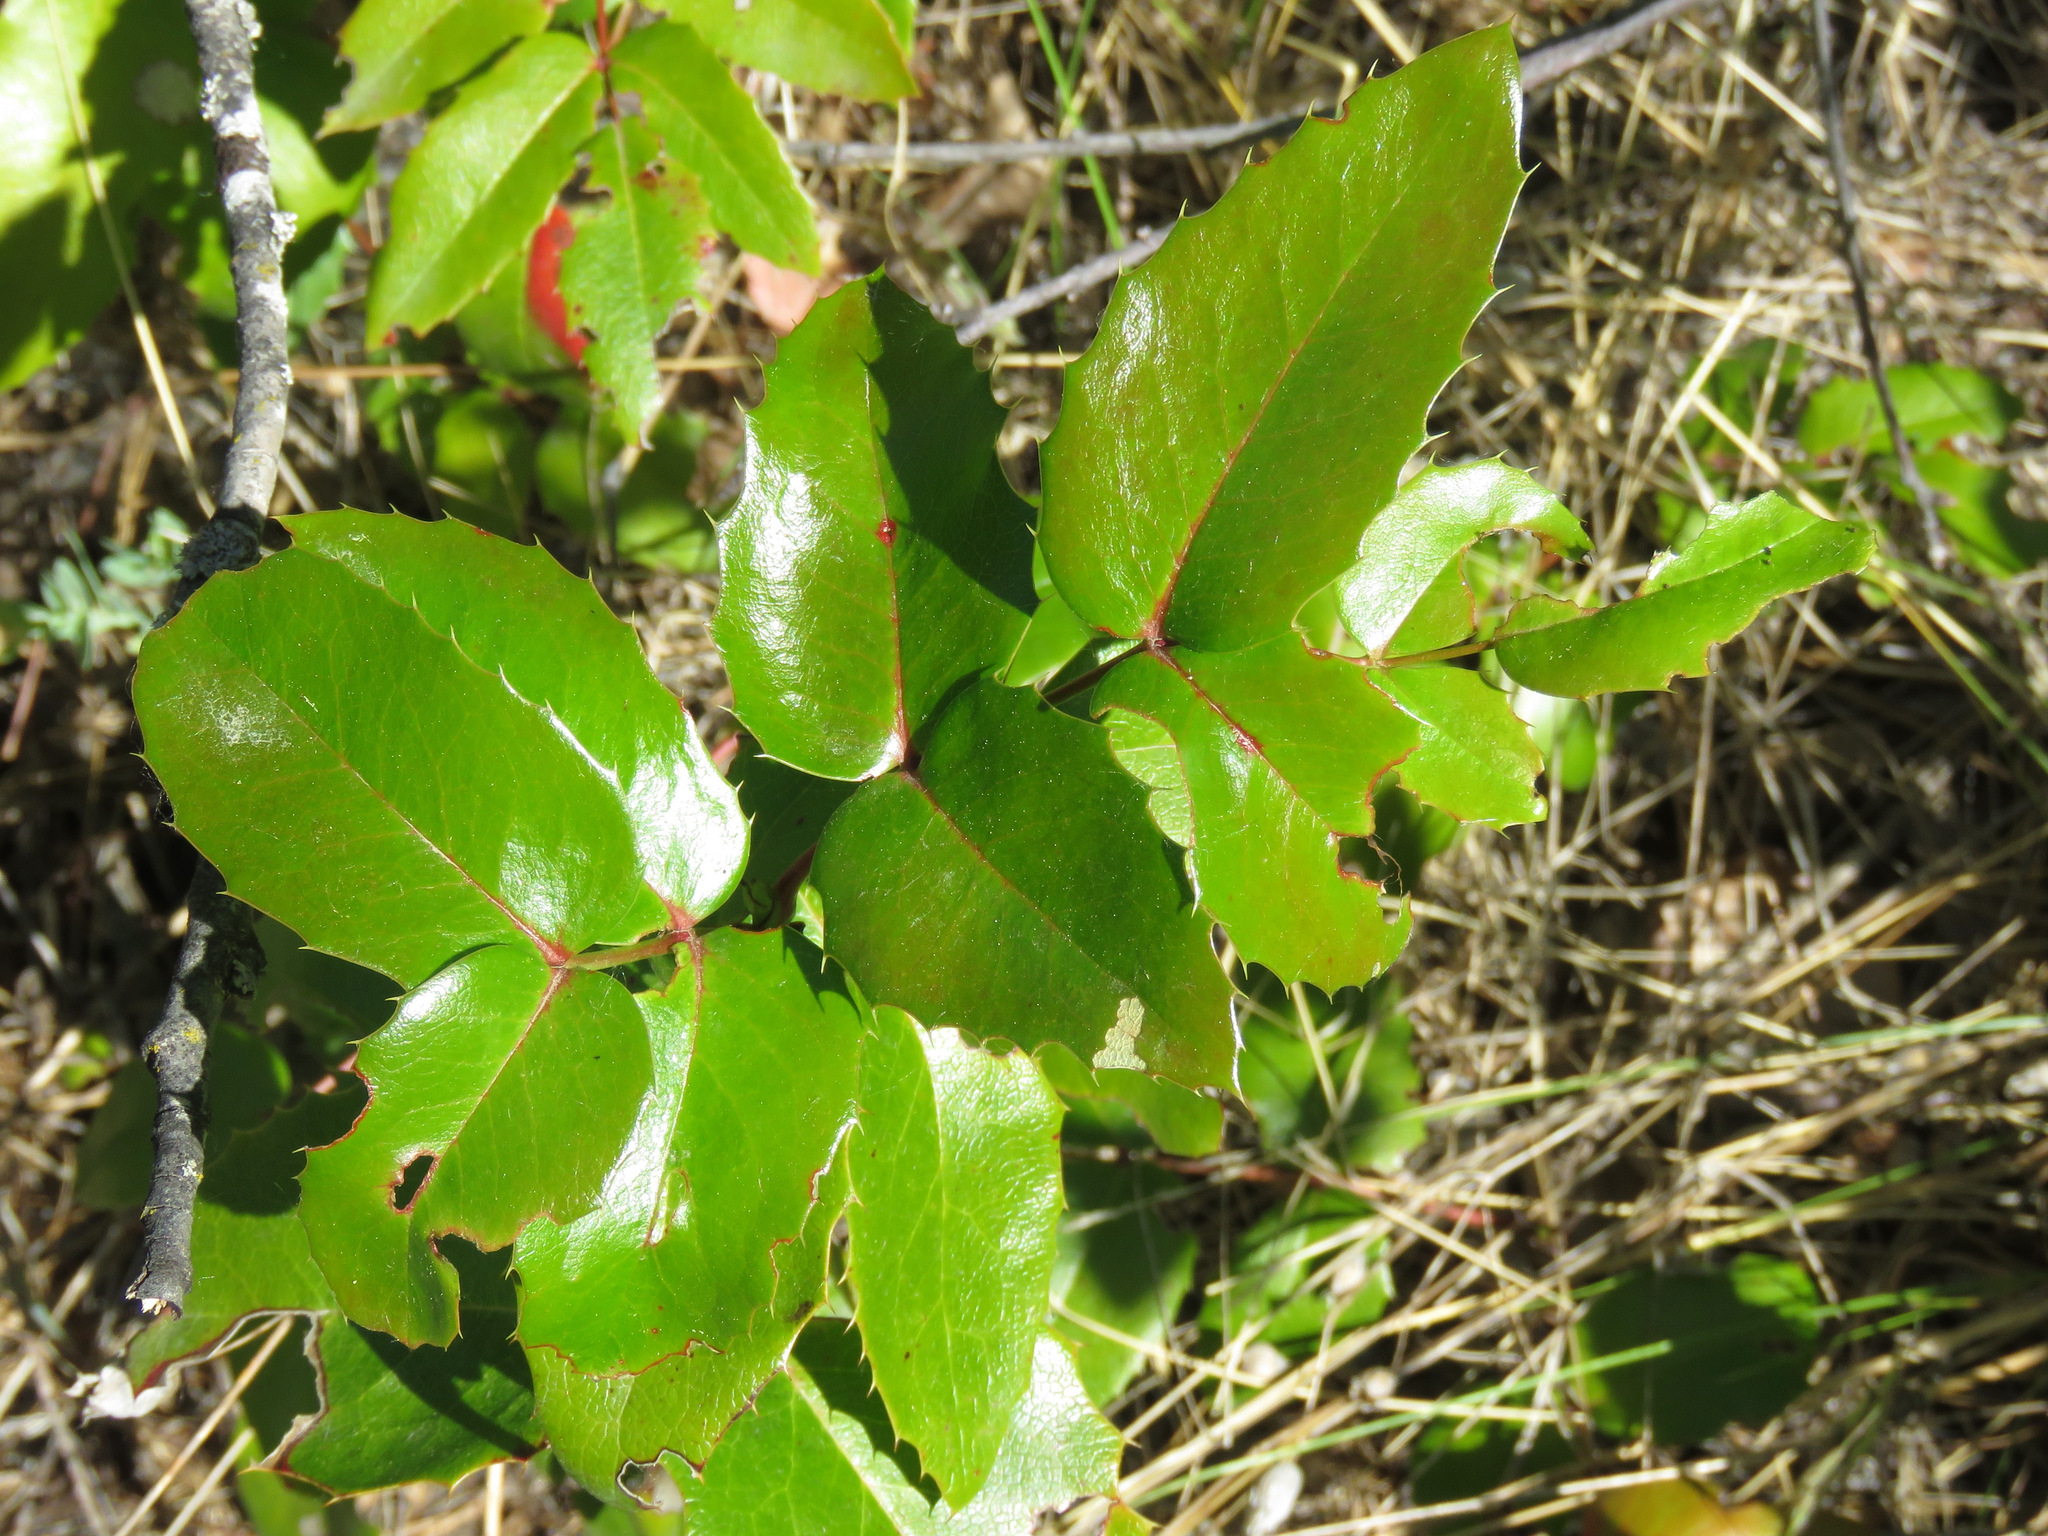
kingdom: Plantae
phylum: Tracheophyta
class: Magnoliopsida
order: Ranunculales
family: Berberidaceae
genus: Mahonia
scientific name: Mahonia aquifolium
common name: Oregon-grape
